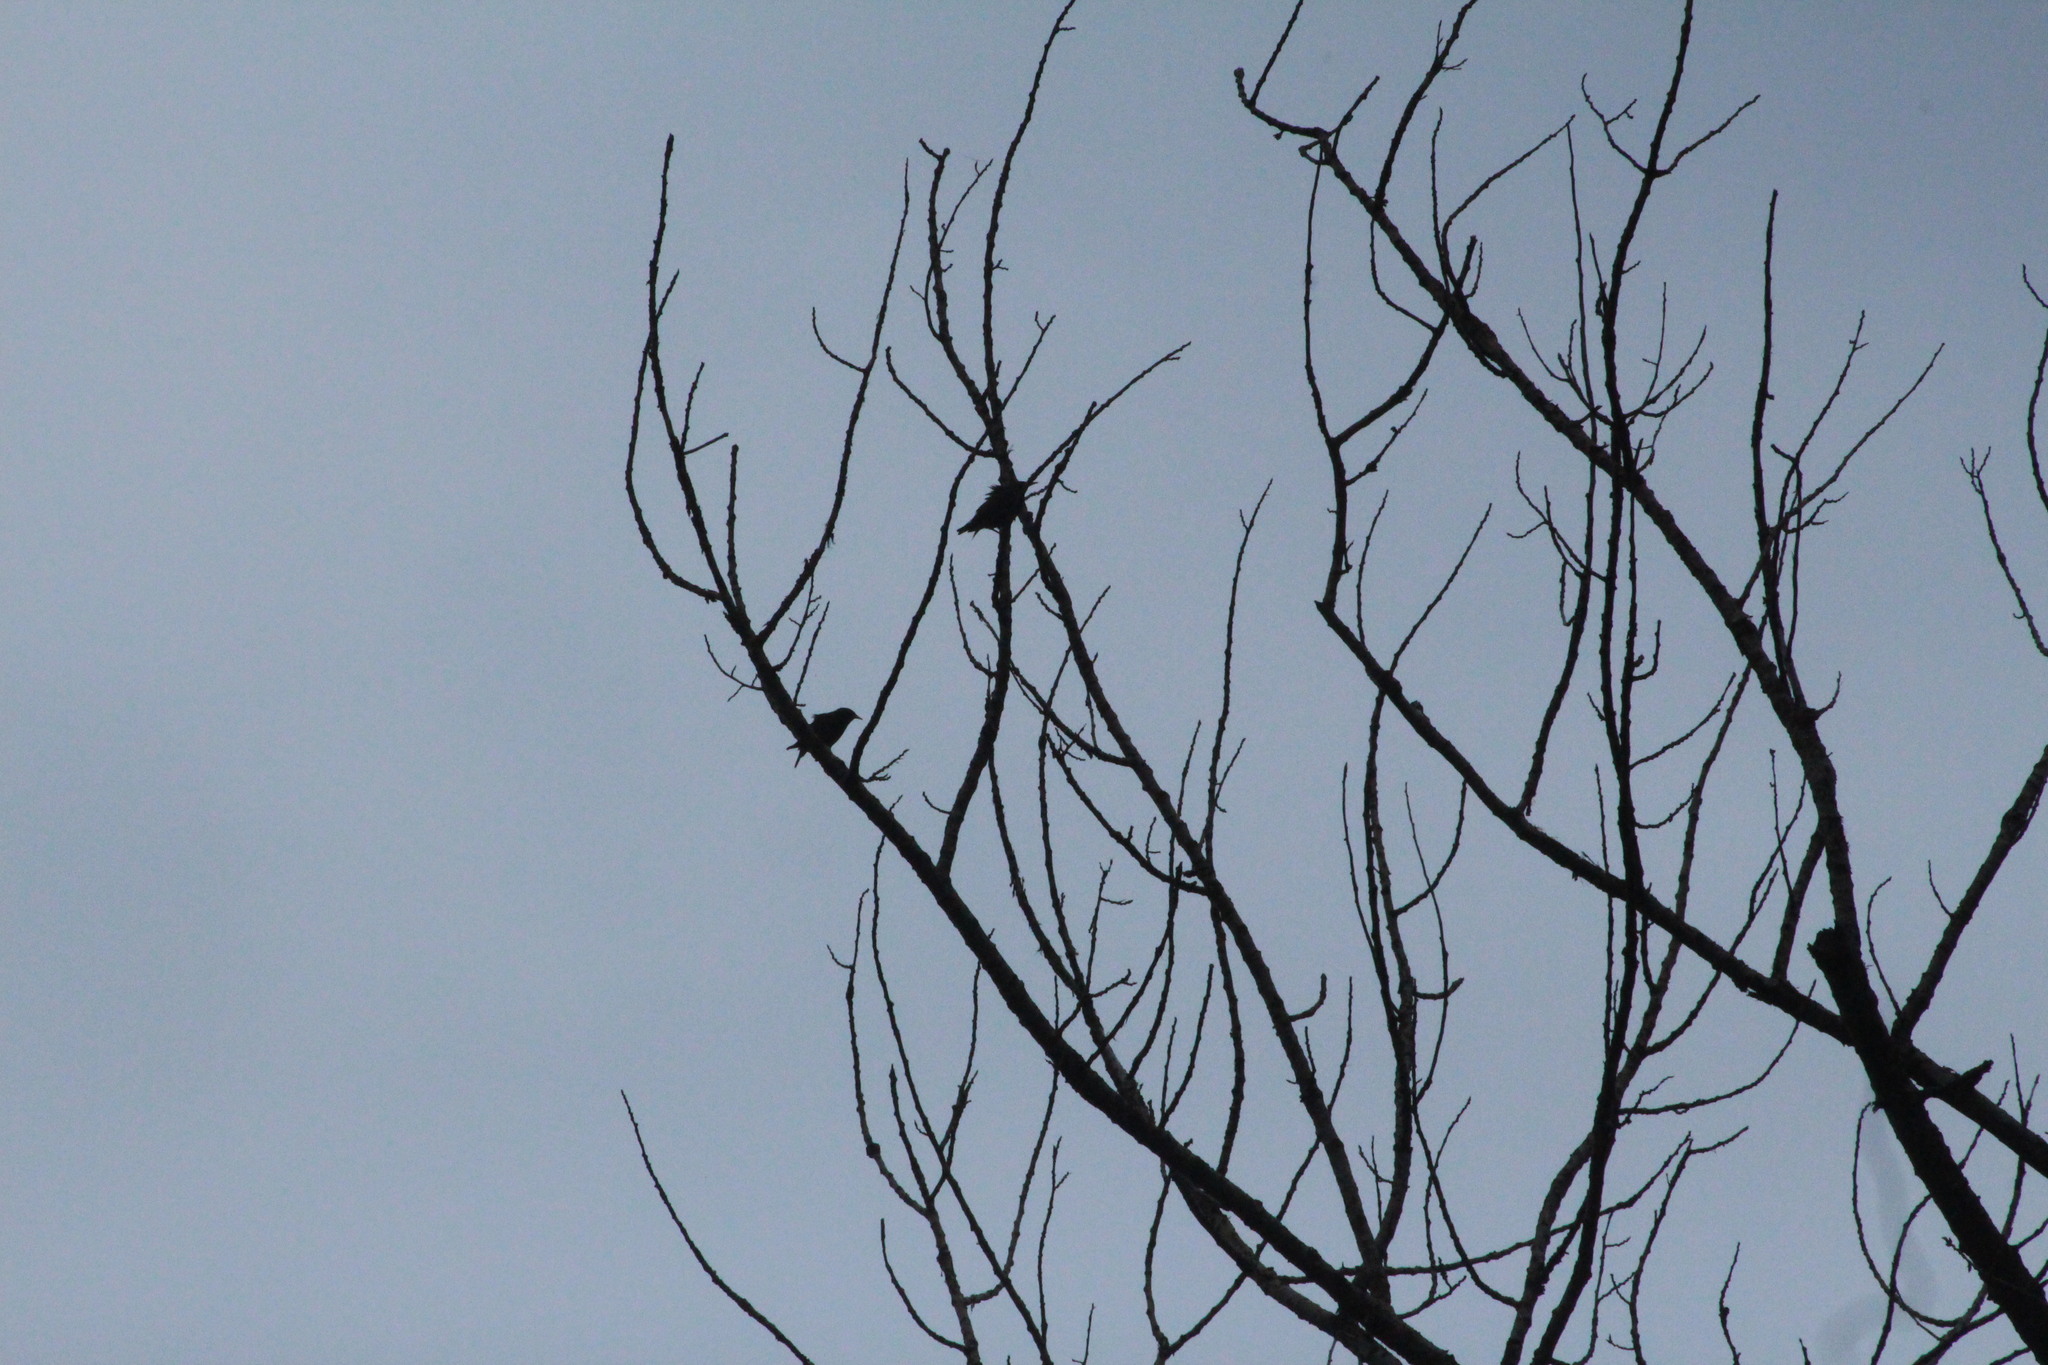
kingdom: Animalia
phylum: Chordata
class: Aves
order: Passeriformes
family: Sturnidae
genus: Sturnus
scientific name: Sturnus vulgaris
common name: Common starling
